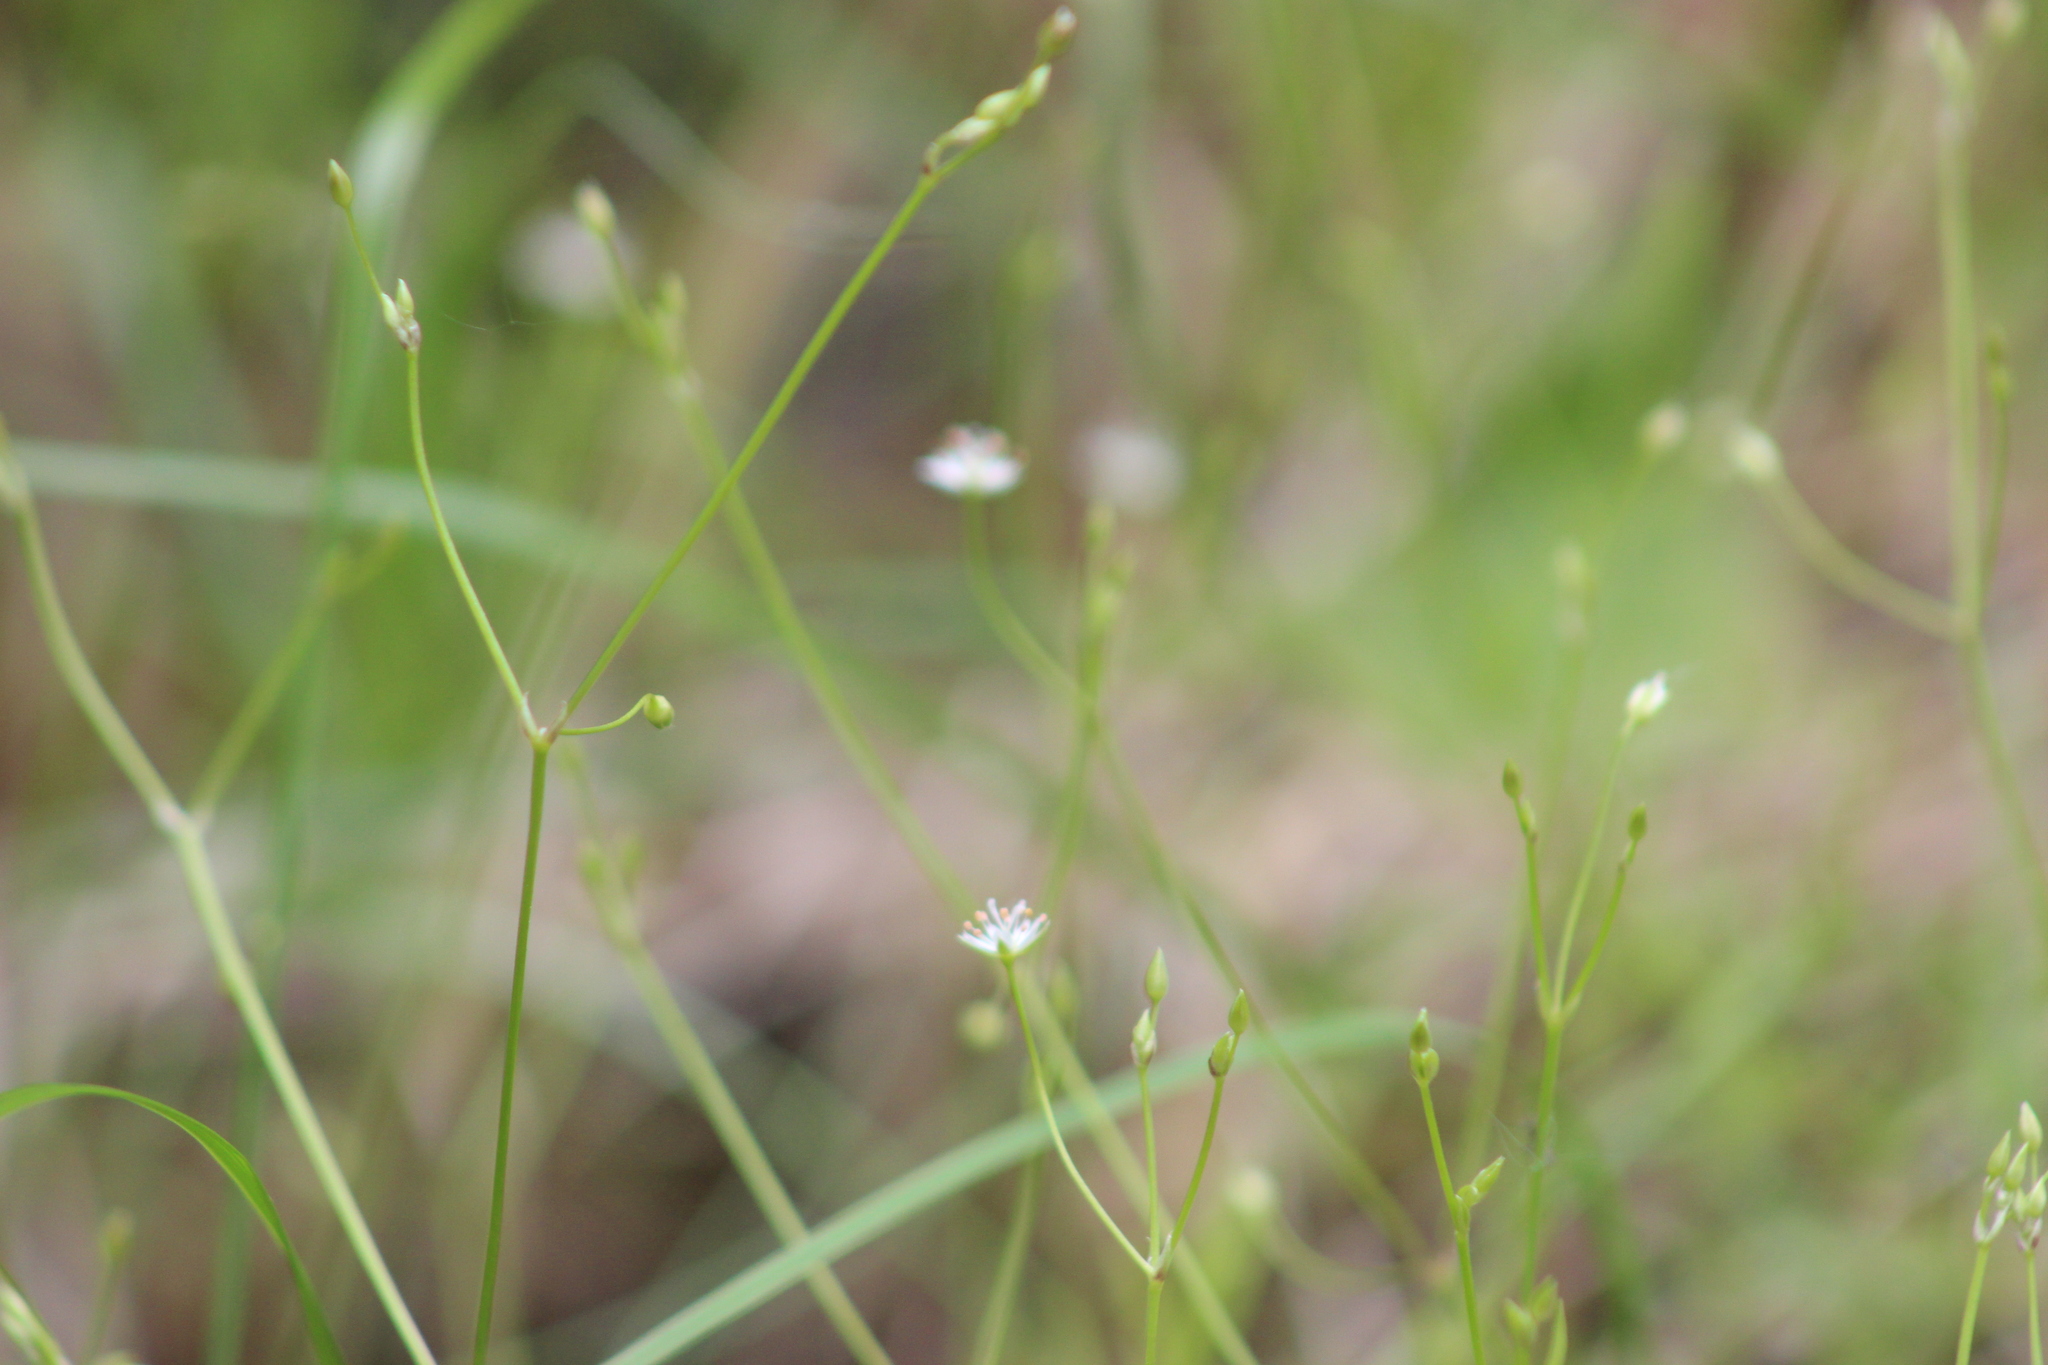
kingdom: Plantae
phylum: Tracheophyta
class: Magnoliopsida
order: Caryophyllales
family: Caryophyllaceae
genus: Stellaria
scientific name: Stellaria longifolia
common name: Long-leaved chickweed
